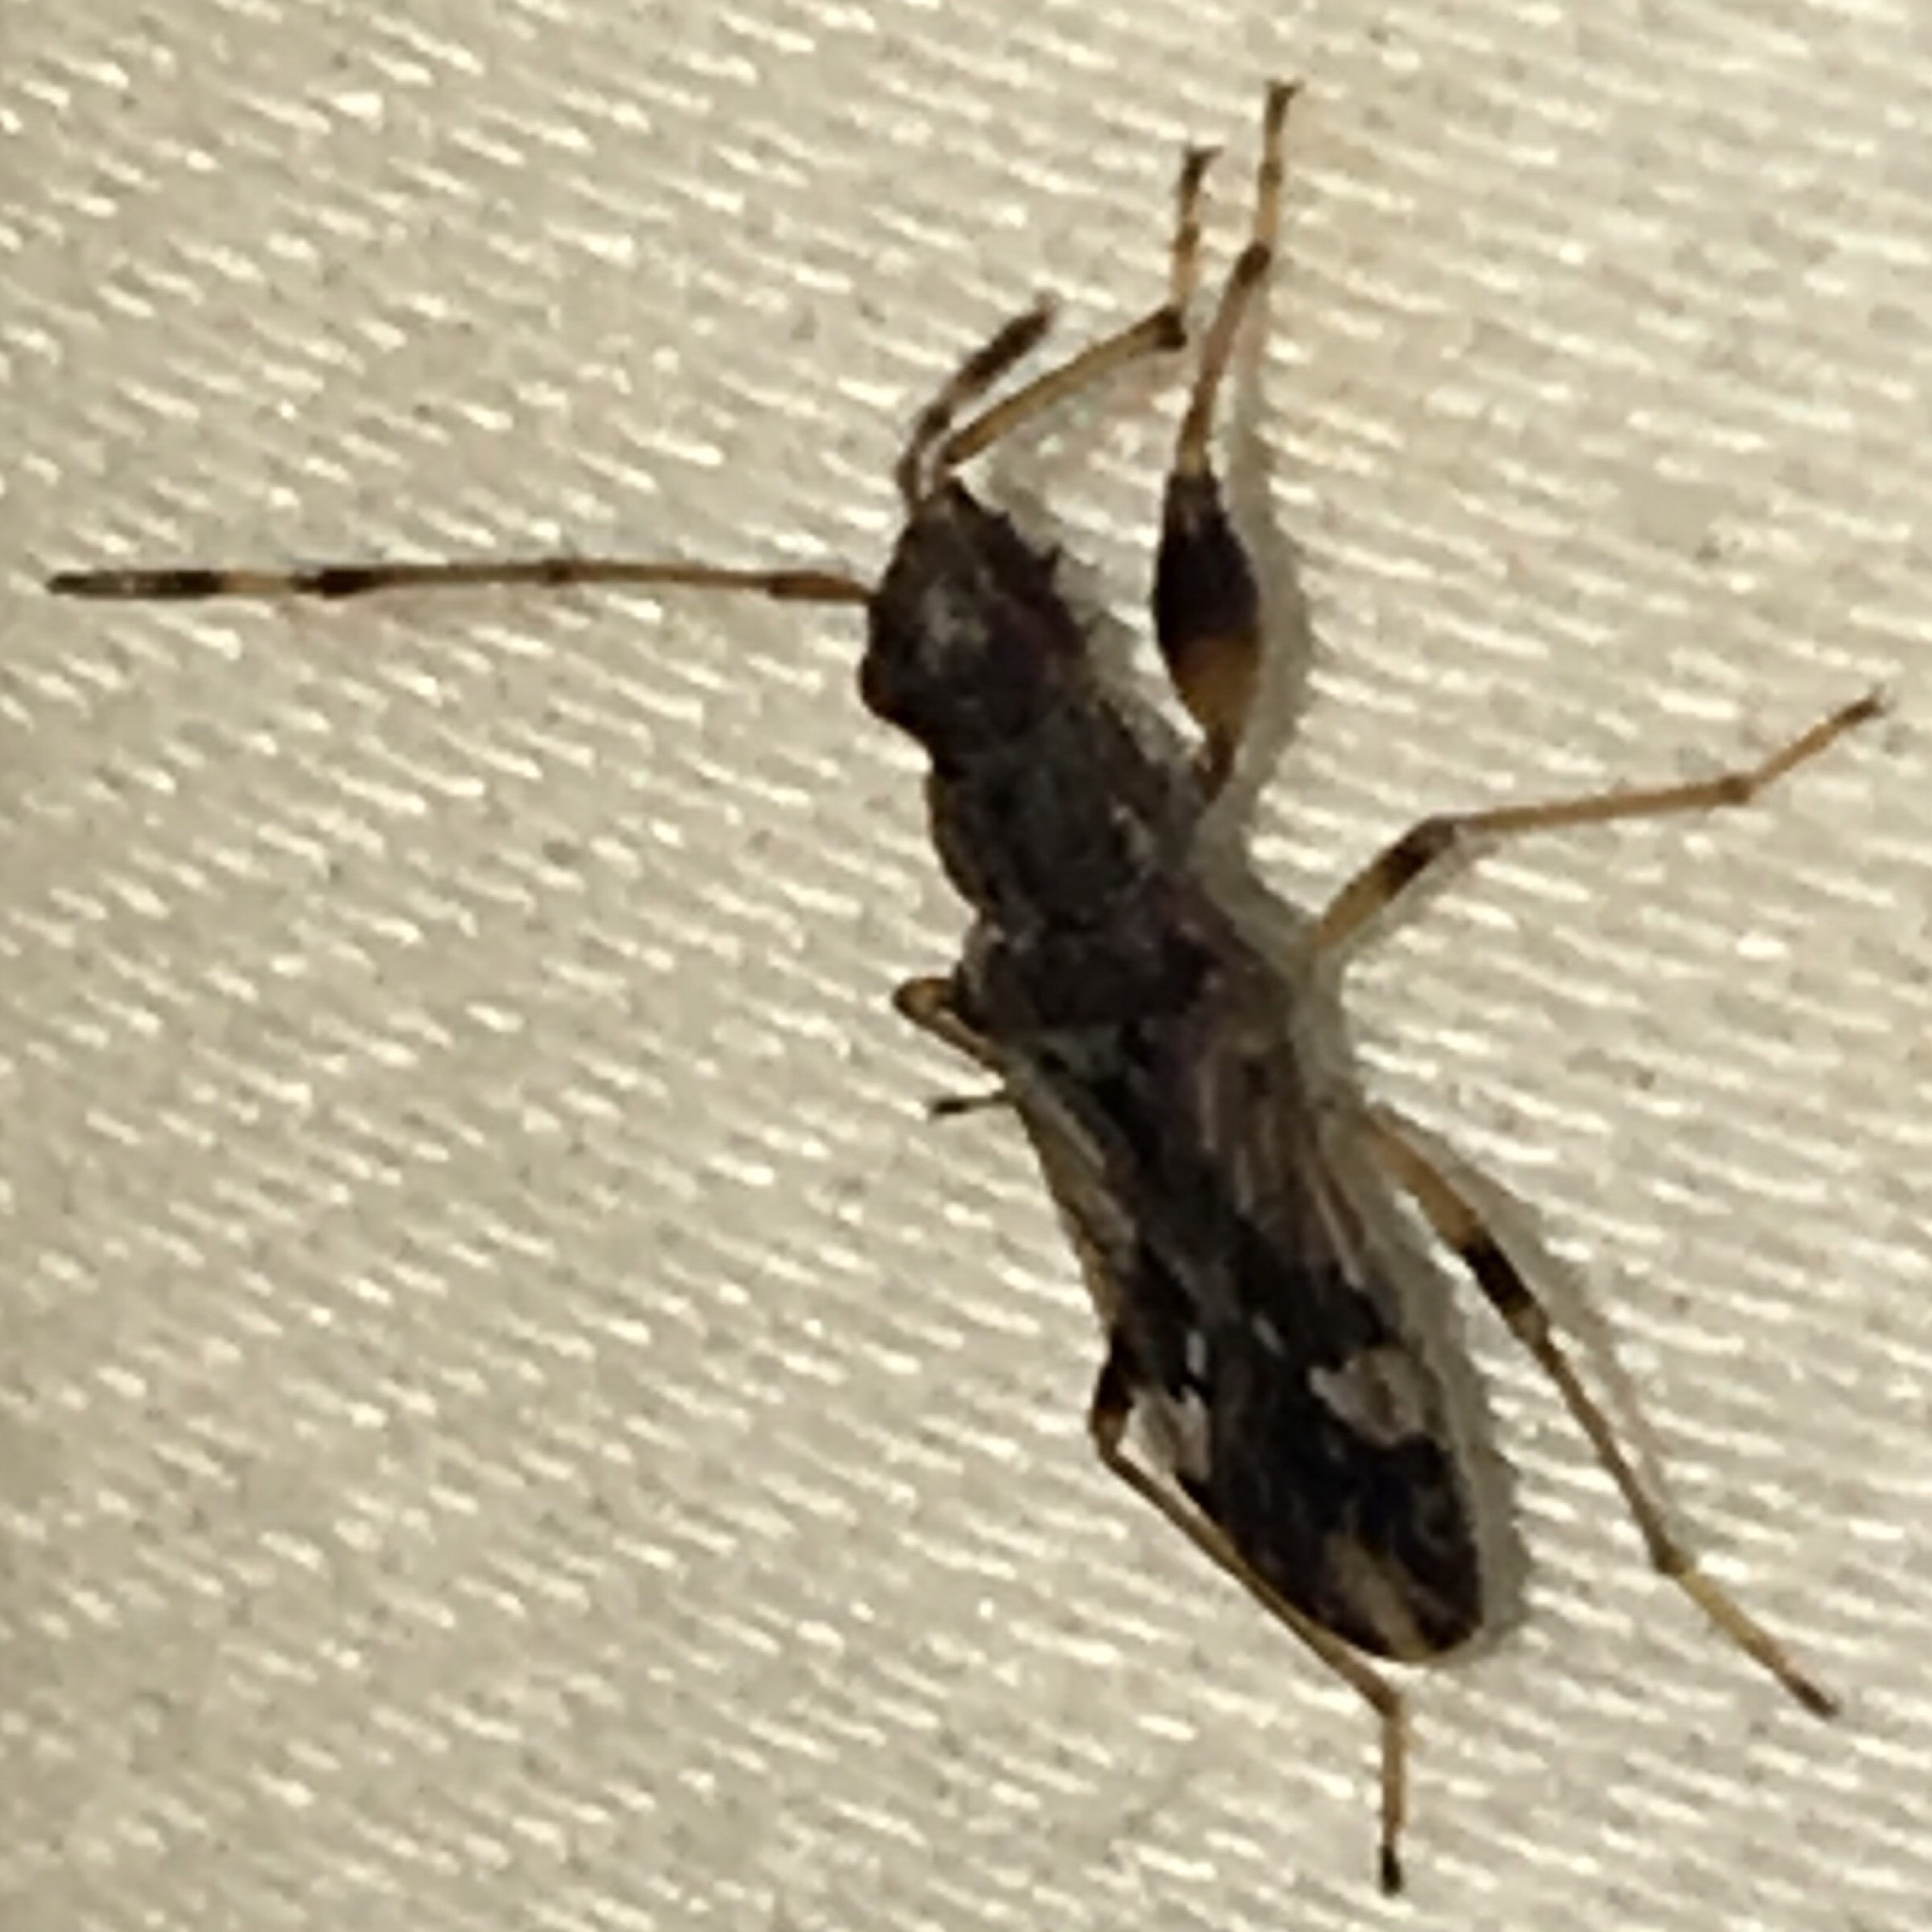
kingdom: Animalia
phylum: Arthropoda
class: Insecta
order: Hemiptera
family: Rhyparochromidae
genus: Neopamera
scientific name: Neopamera albocincta
